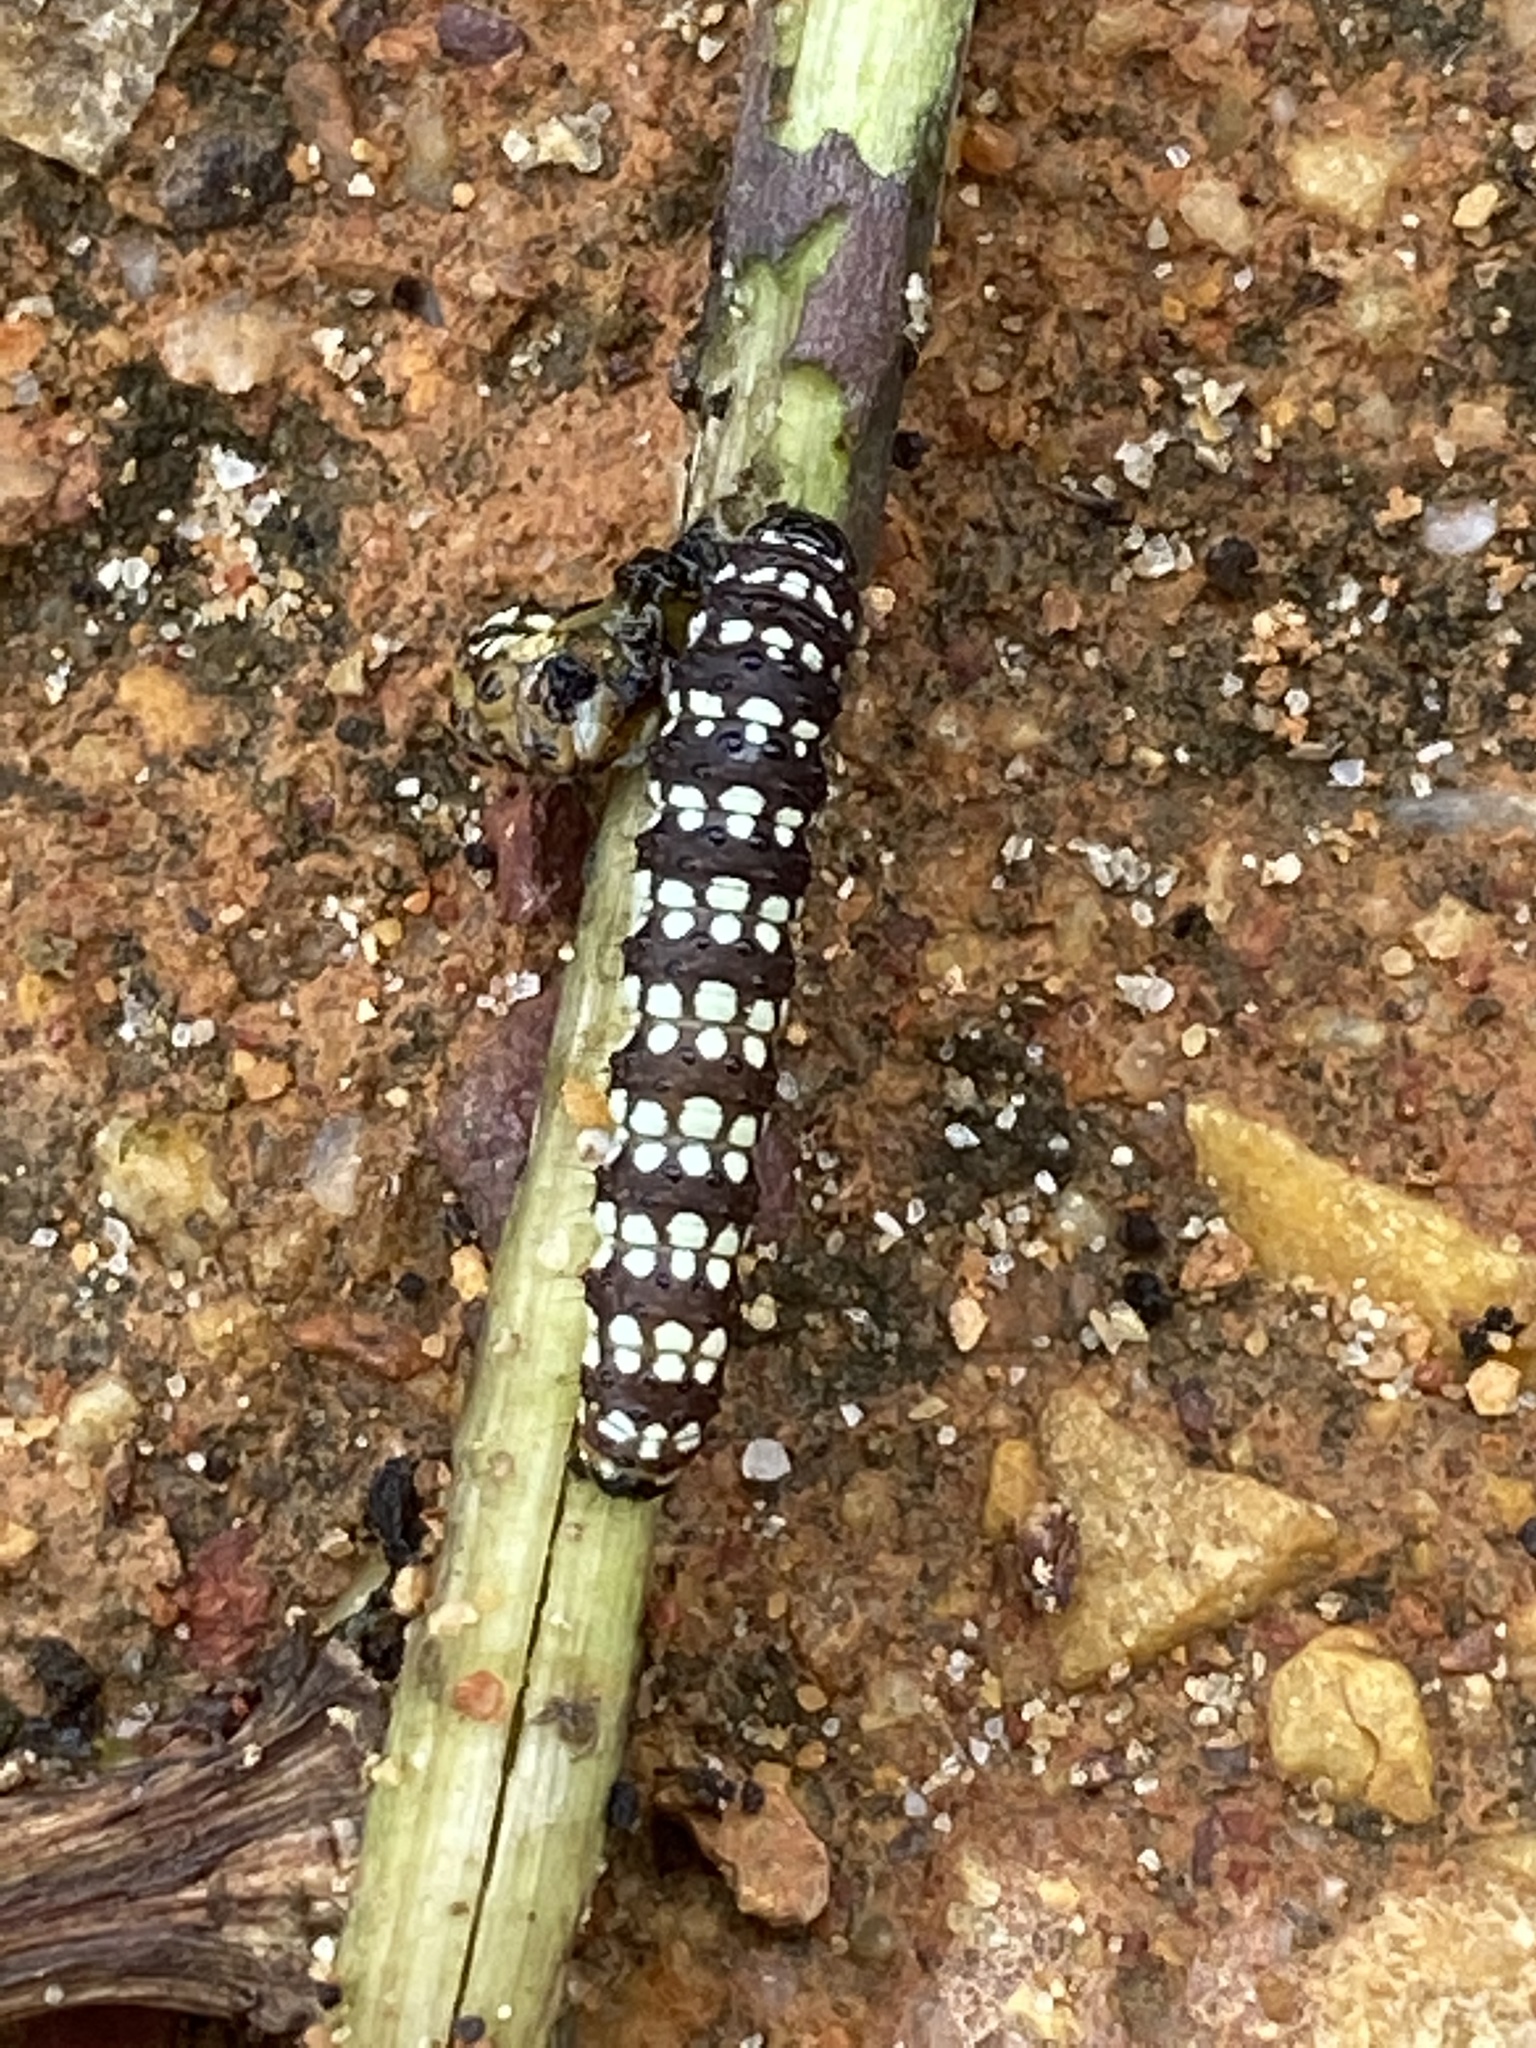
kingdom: Animalia
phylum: Arthropoda
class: Insecta
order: Lepidoptera
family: Noctuidae
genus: Brithys
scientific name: Brithys crini
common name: Kew arches
